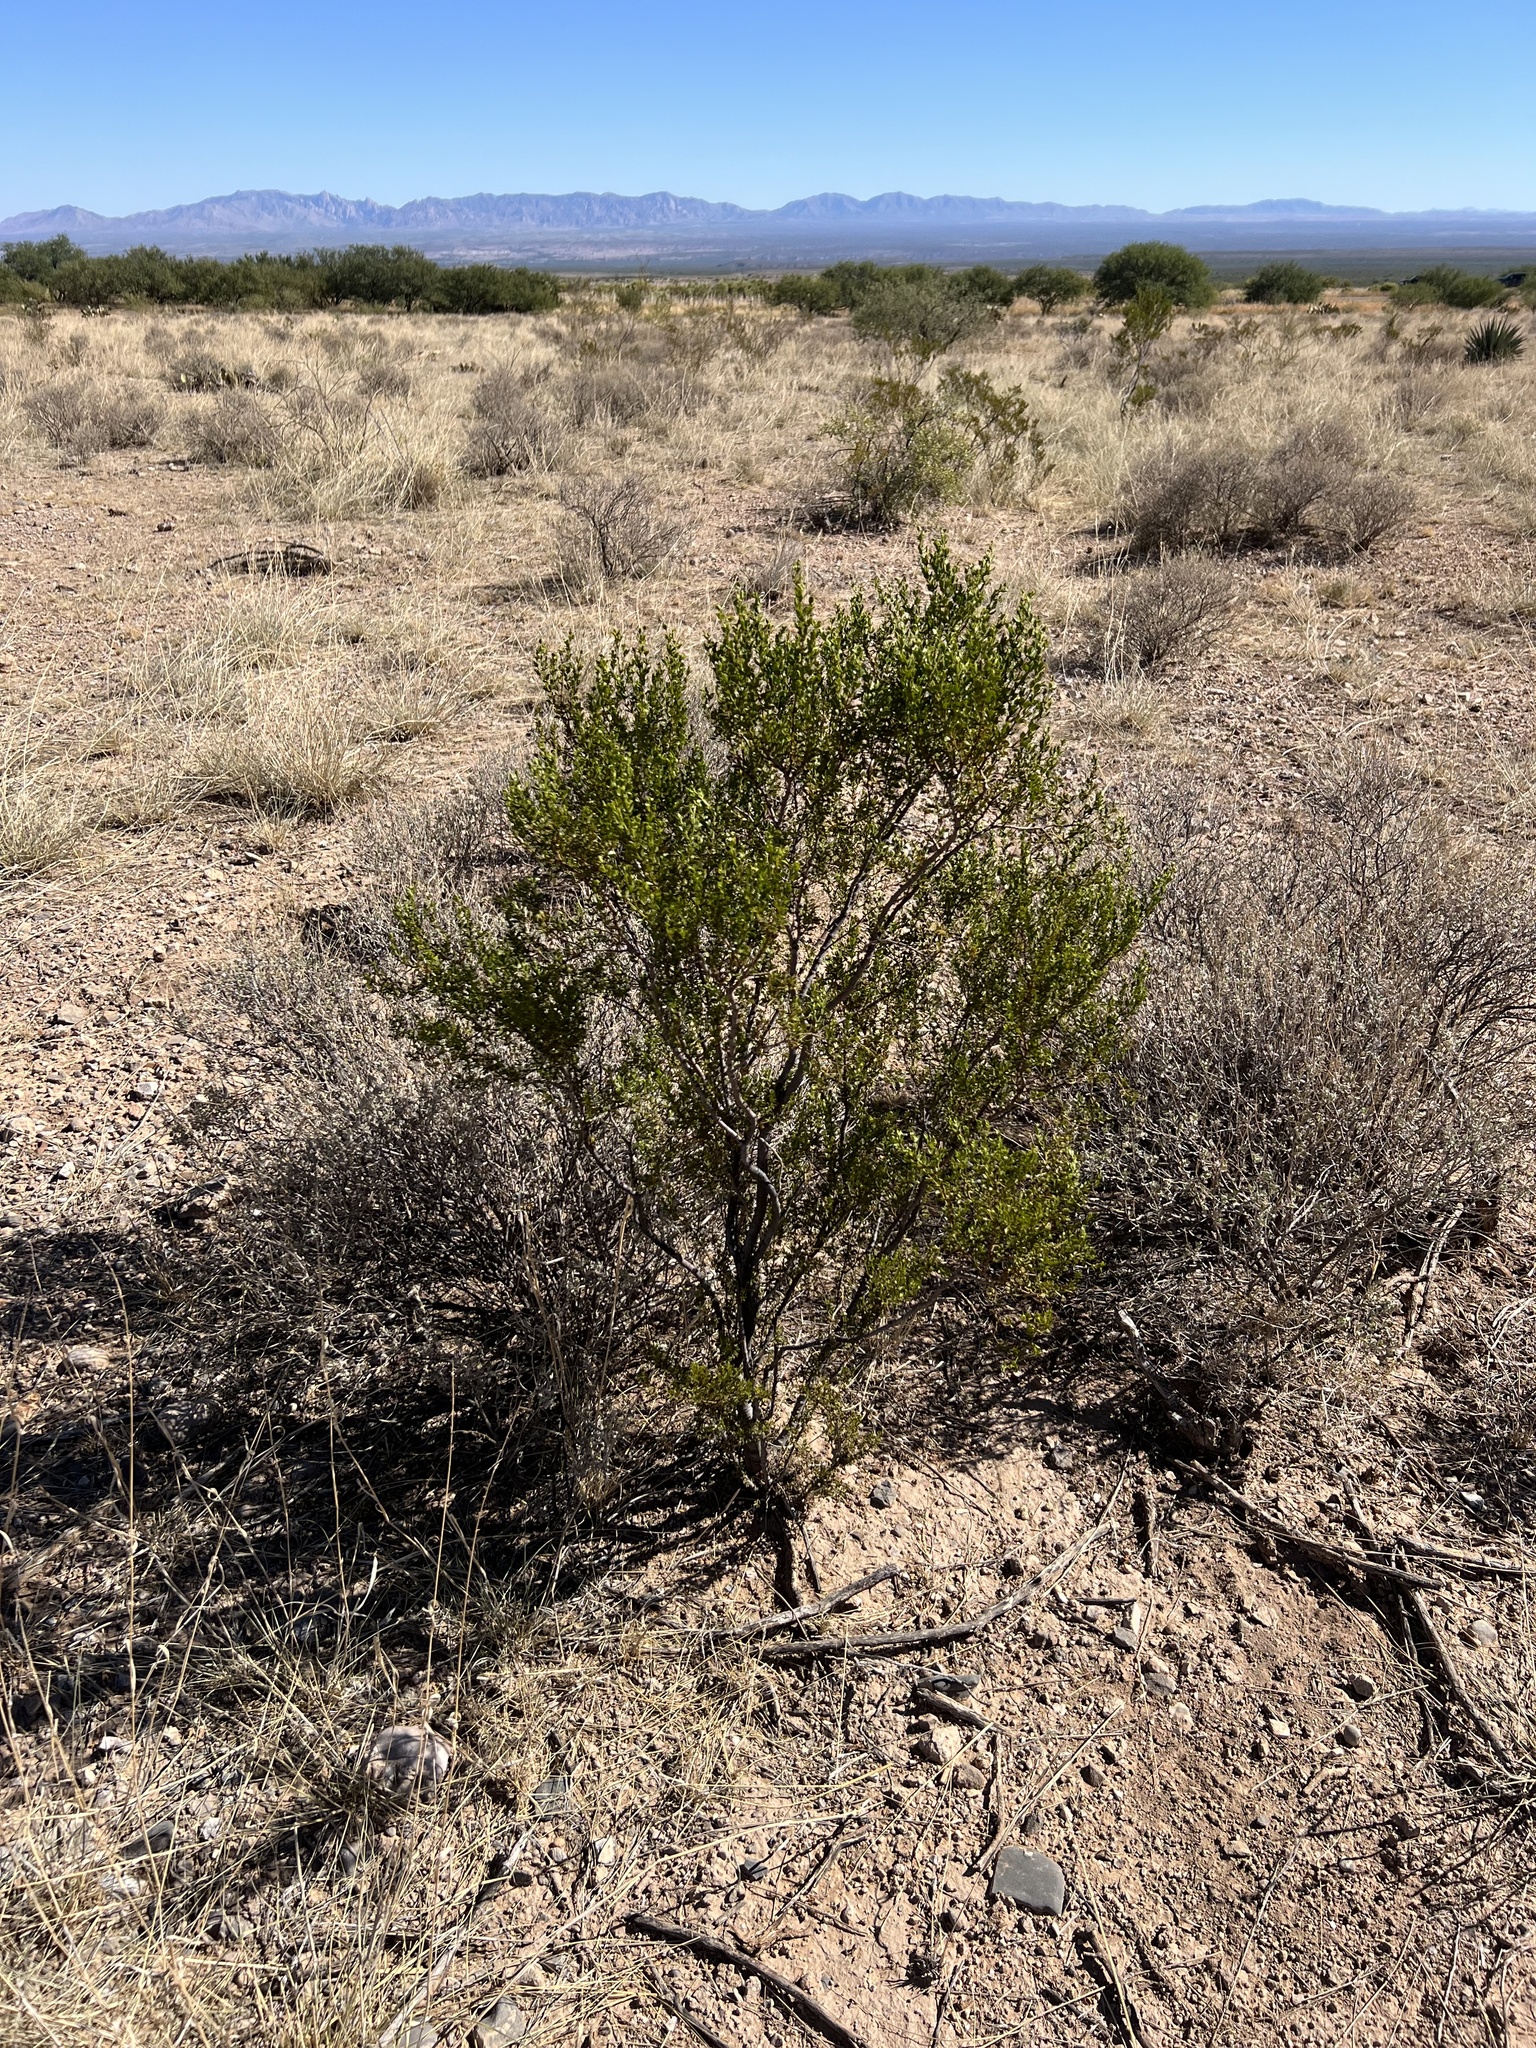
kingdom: Plantae
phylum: Tracheophyta
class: Magnoliopsida
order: Zygophyllales
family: Zygophyllaceae
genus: Larrea
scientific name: Larrea tridentata
